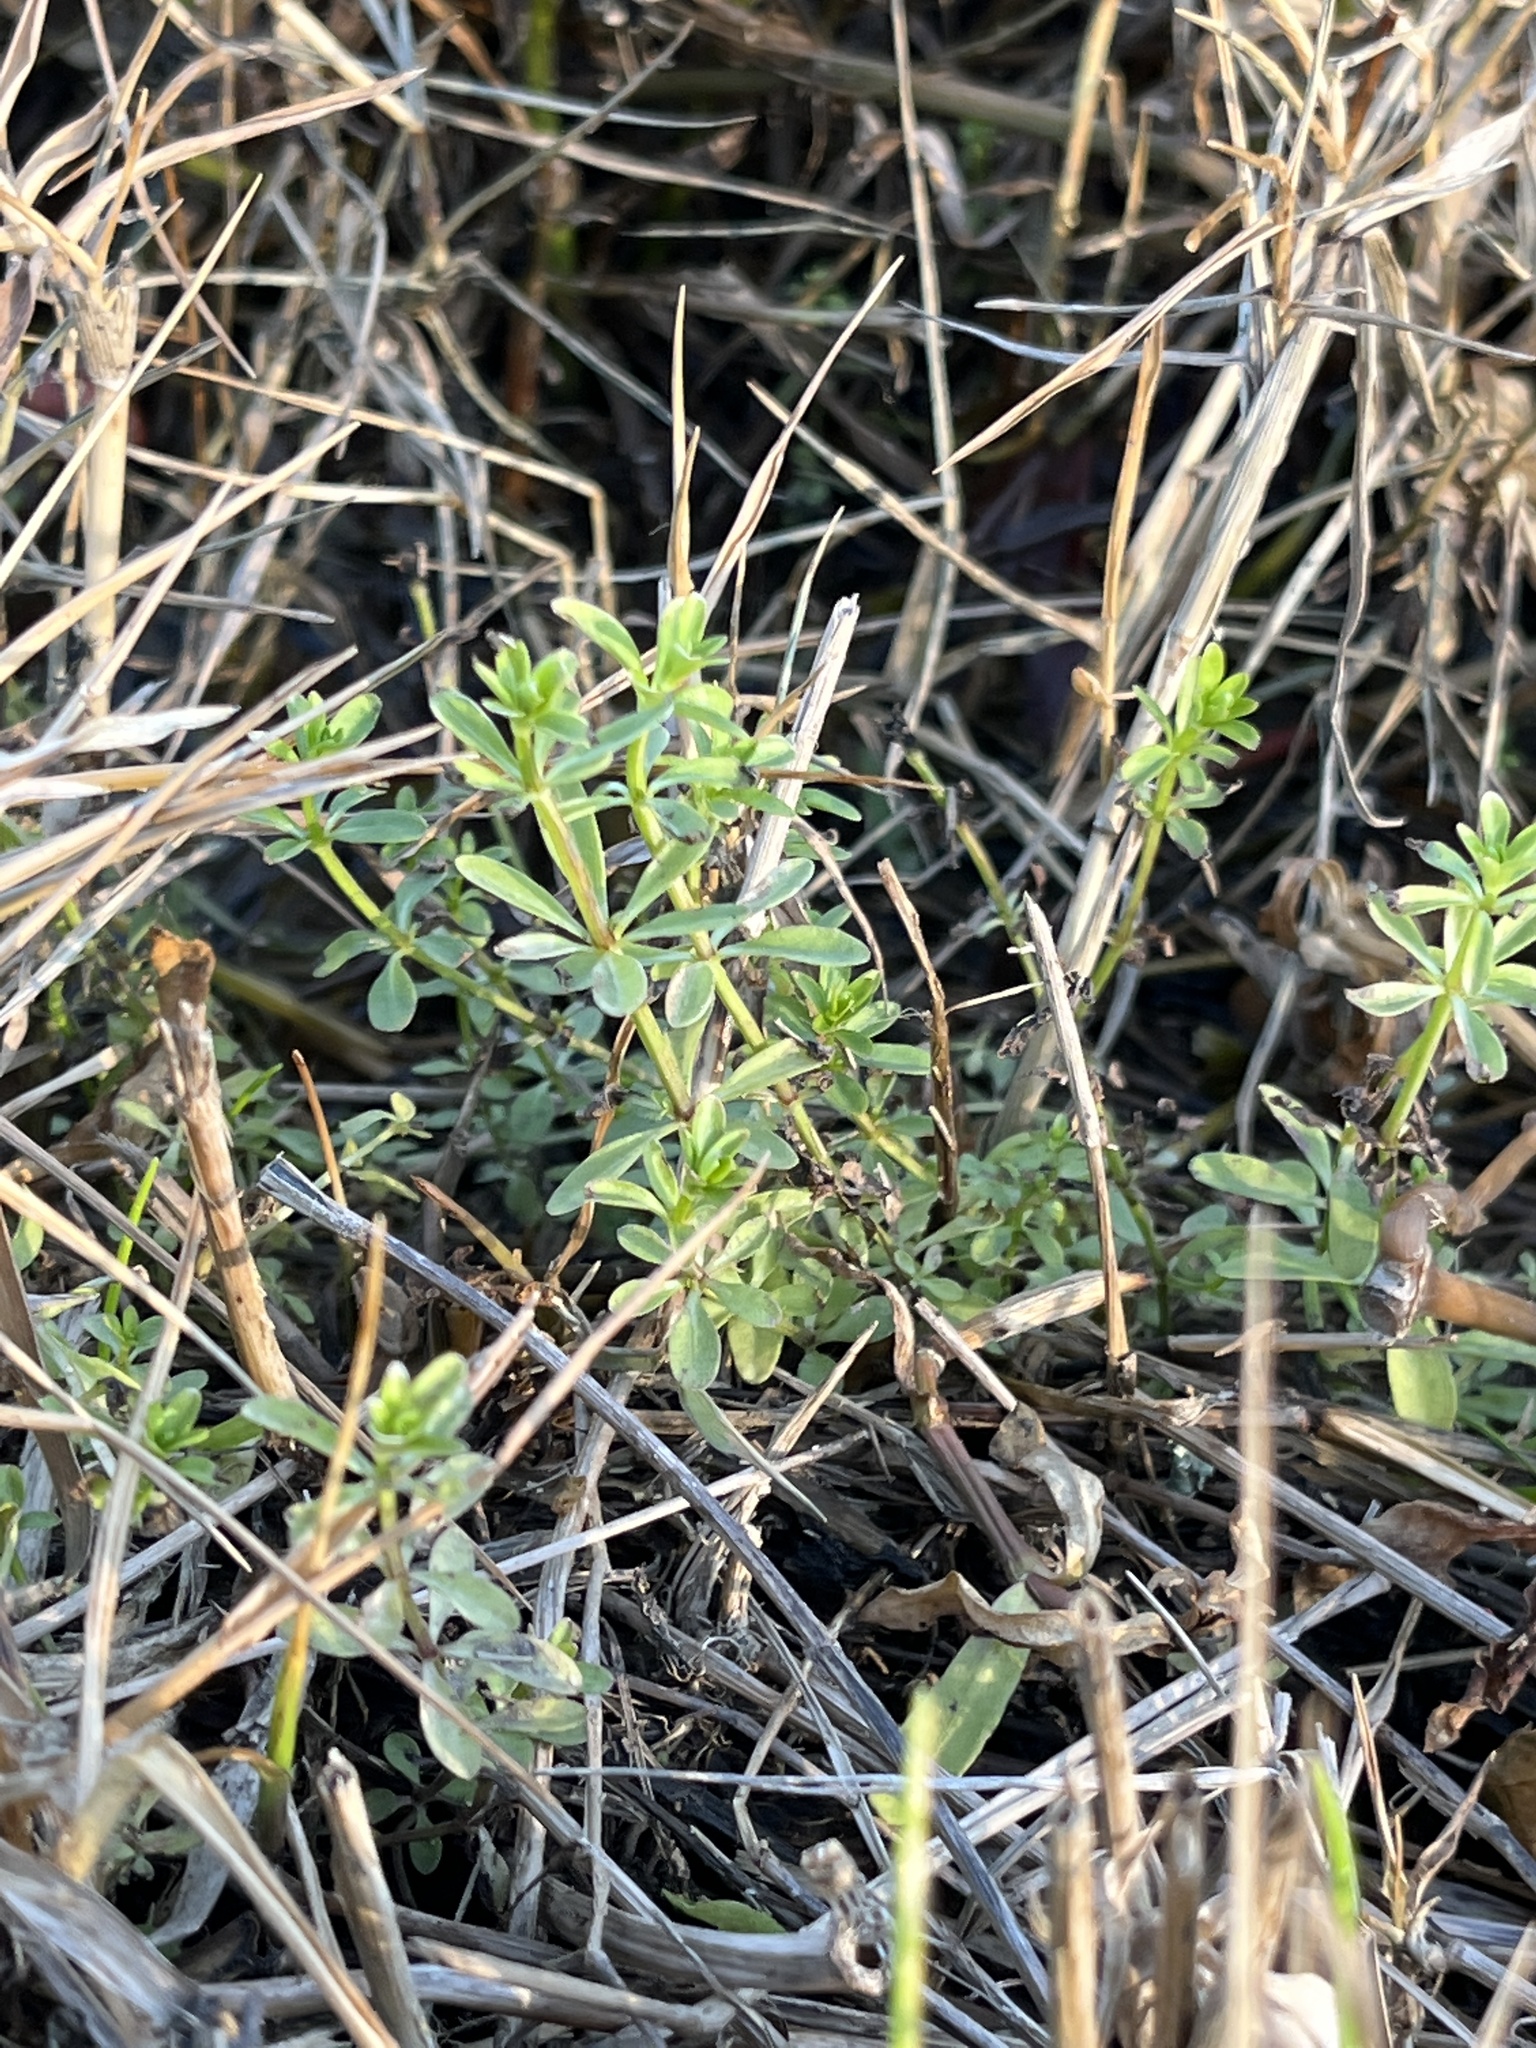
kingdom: Plantae
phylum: Tracheophyta
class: Magnoliopsida
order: Gentianales
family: Rubiaceae
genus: Galium
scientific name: Galium aparine
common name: Cleavers
